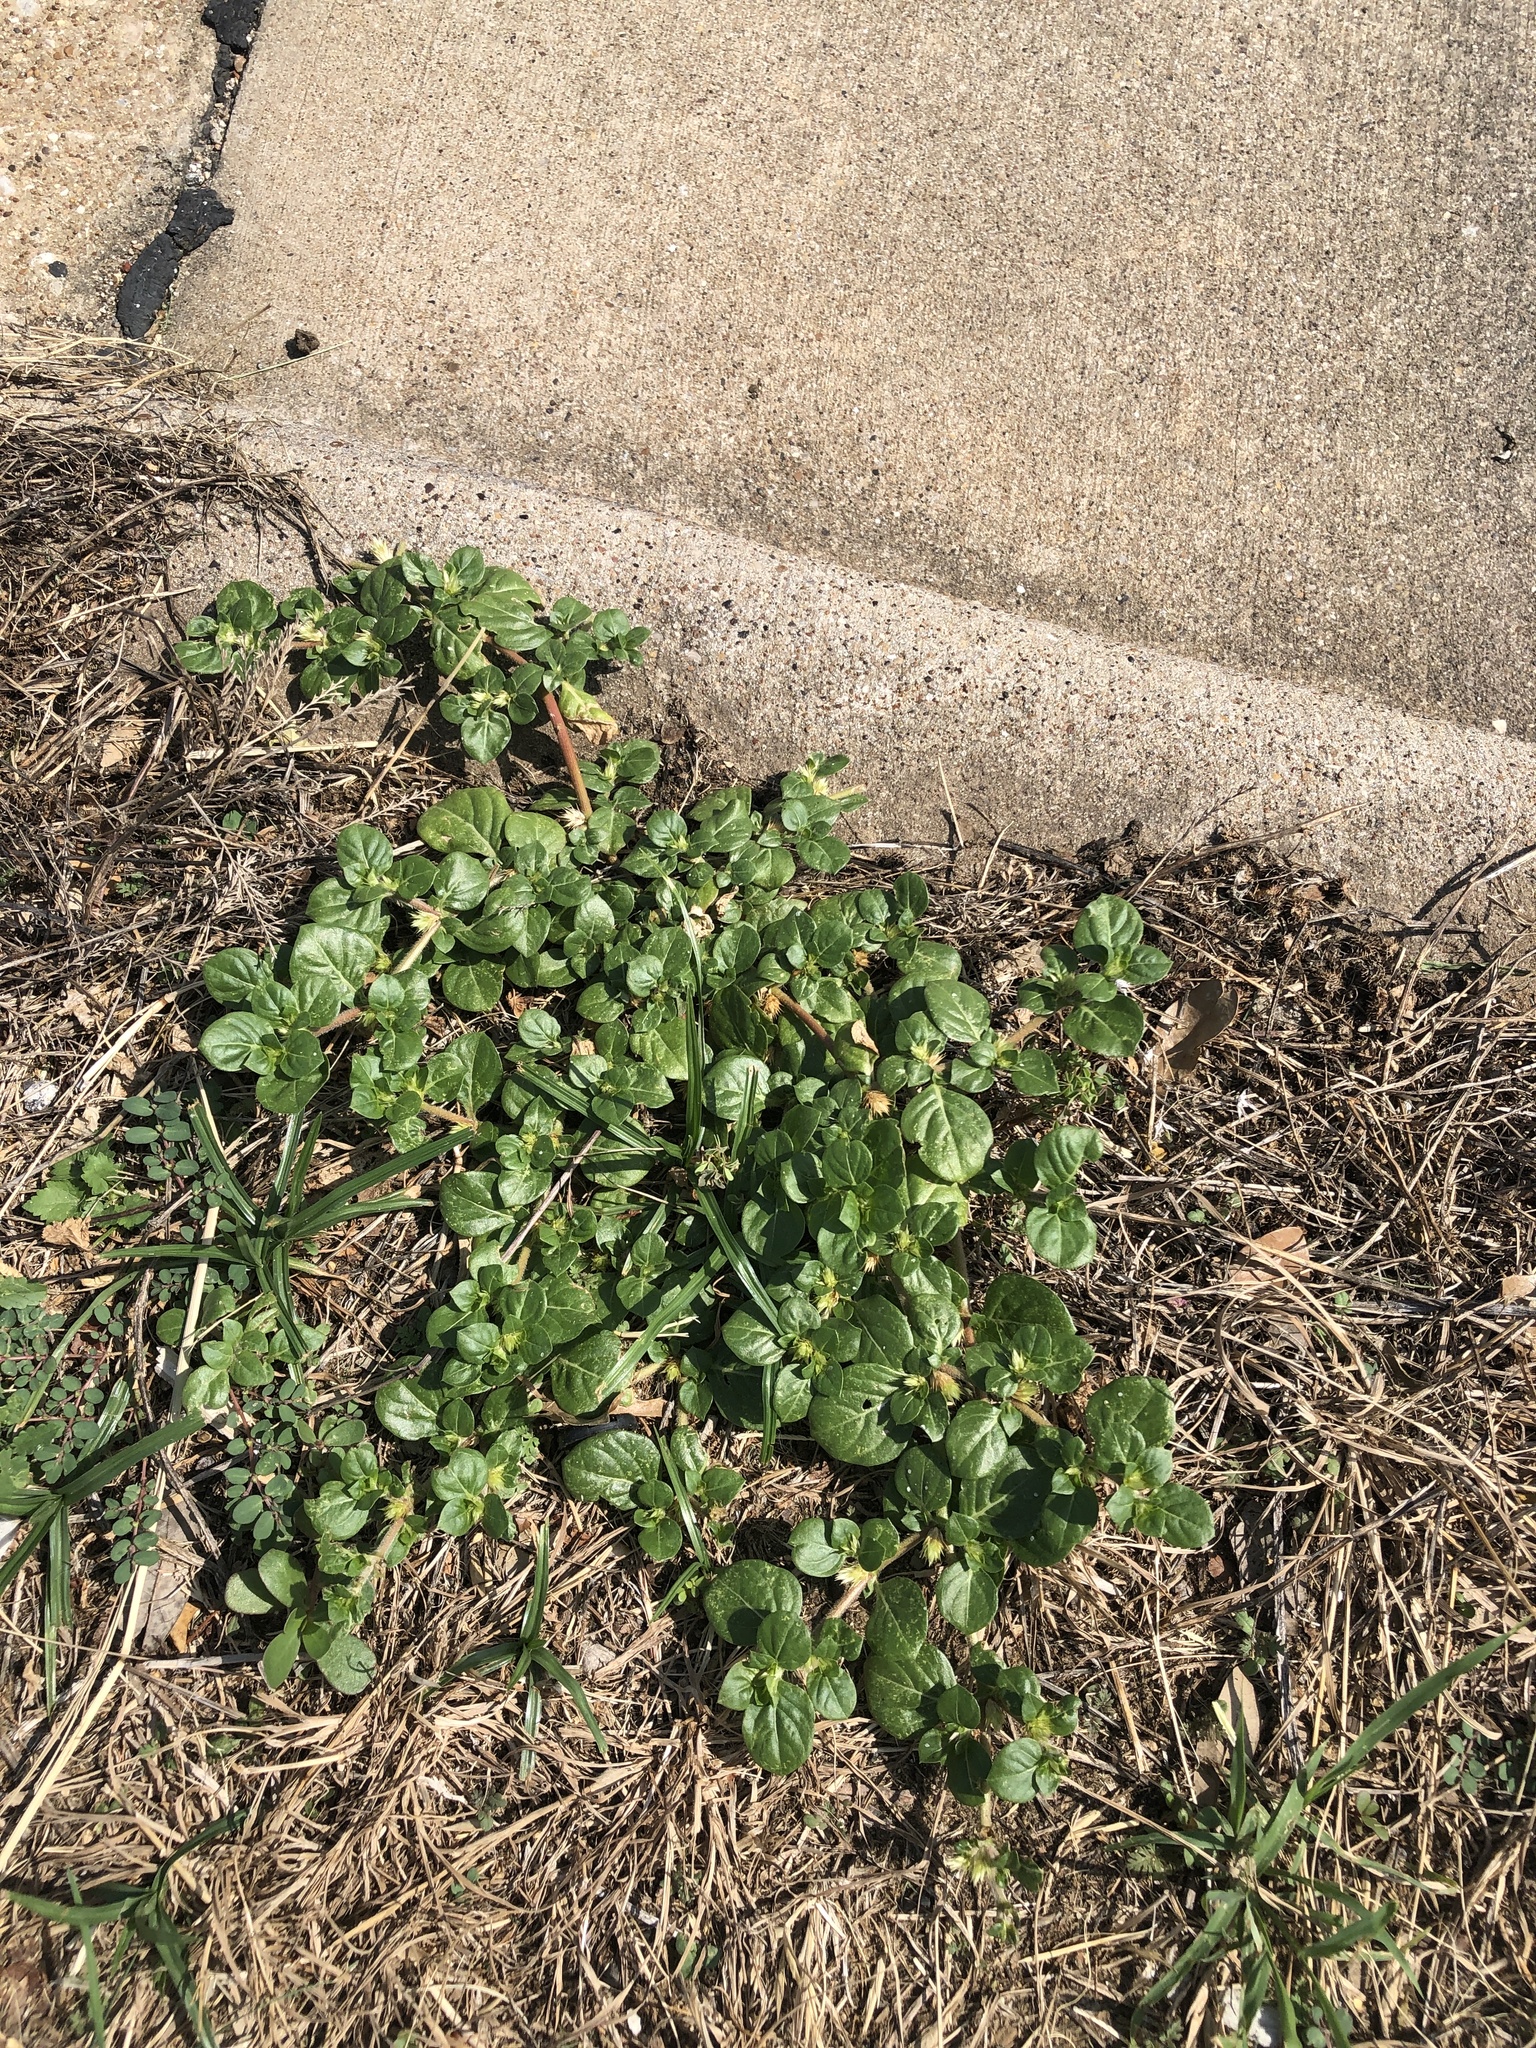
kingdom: Plantae
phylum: Tracheophyta
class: Magnoliopsida
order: Caryophyllales
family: Amaranthaceae
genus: Alternanthera
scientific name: Alternanthera pungens
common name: Khakiweed
